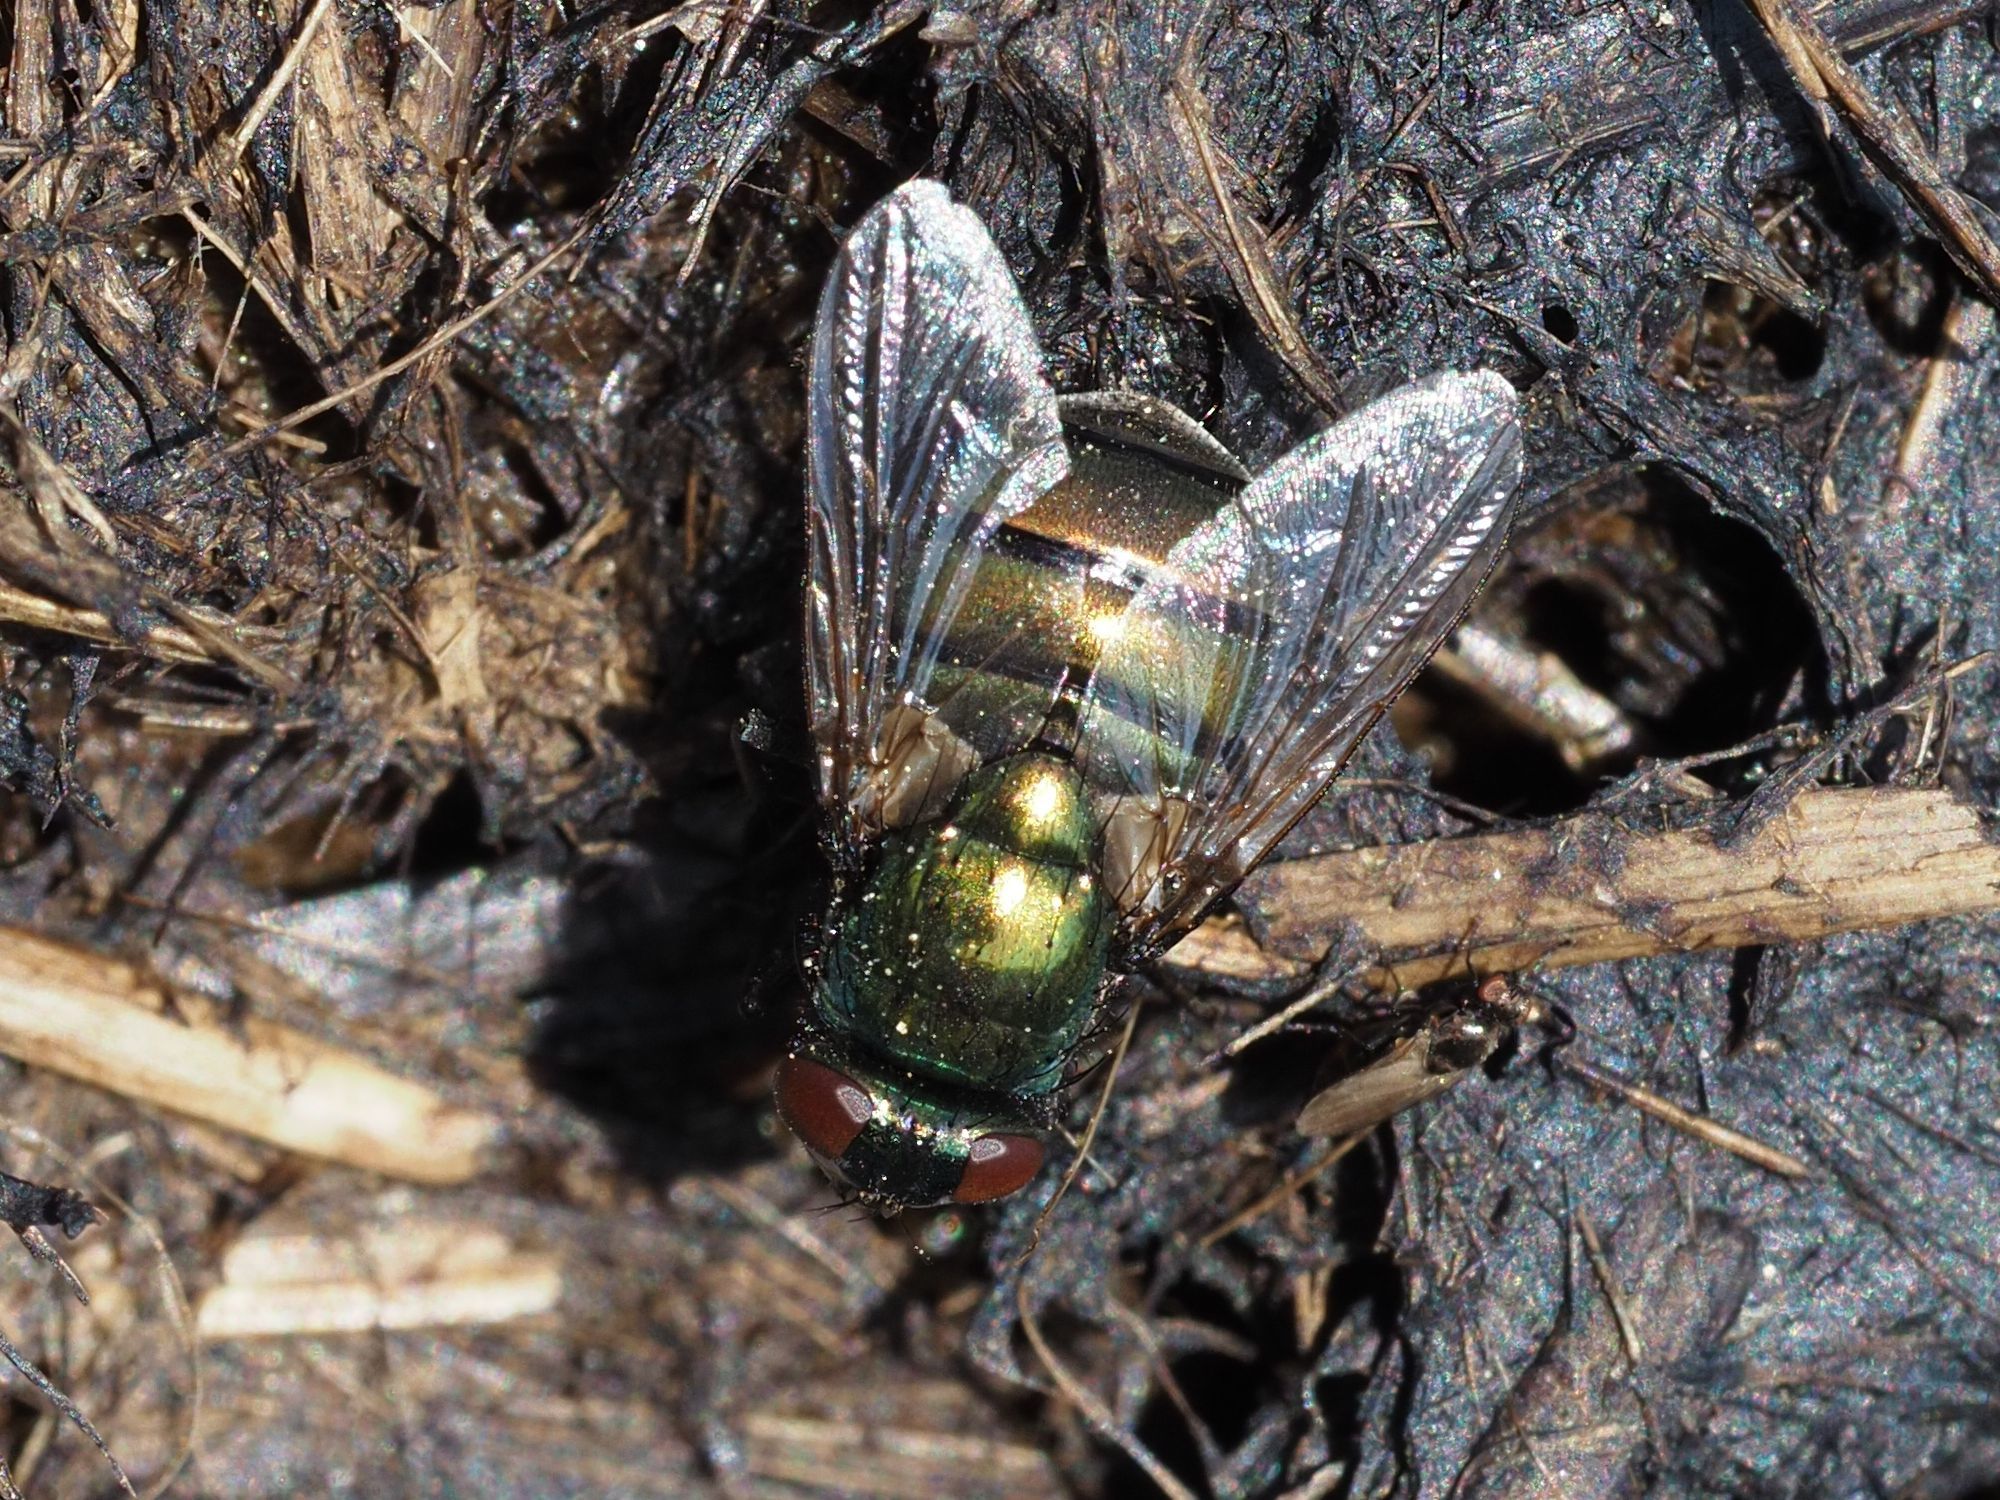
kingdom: Animalia
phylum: Arthropoda
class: Insecta
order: Diptera
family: Muscidae
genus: Neomyia
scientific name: Neomyia cornicina
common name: House fly
